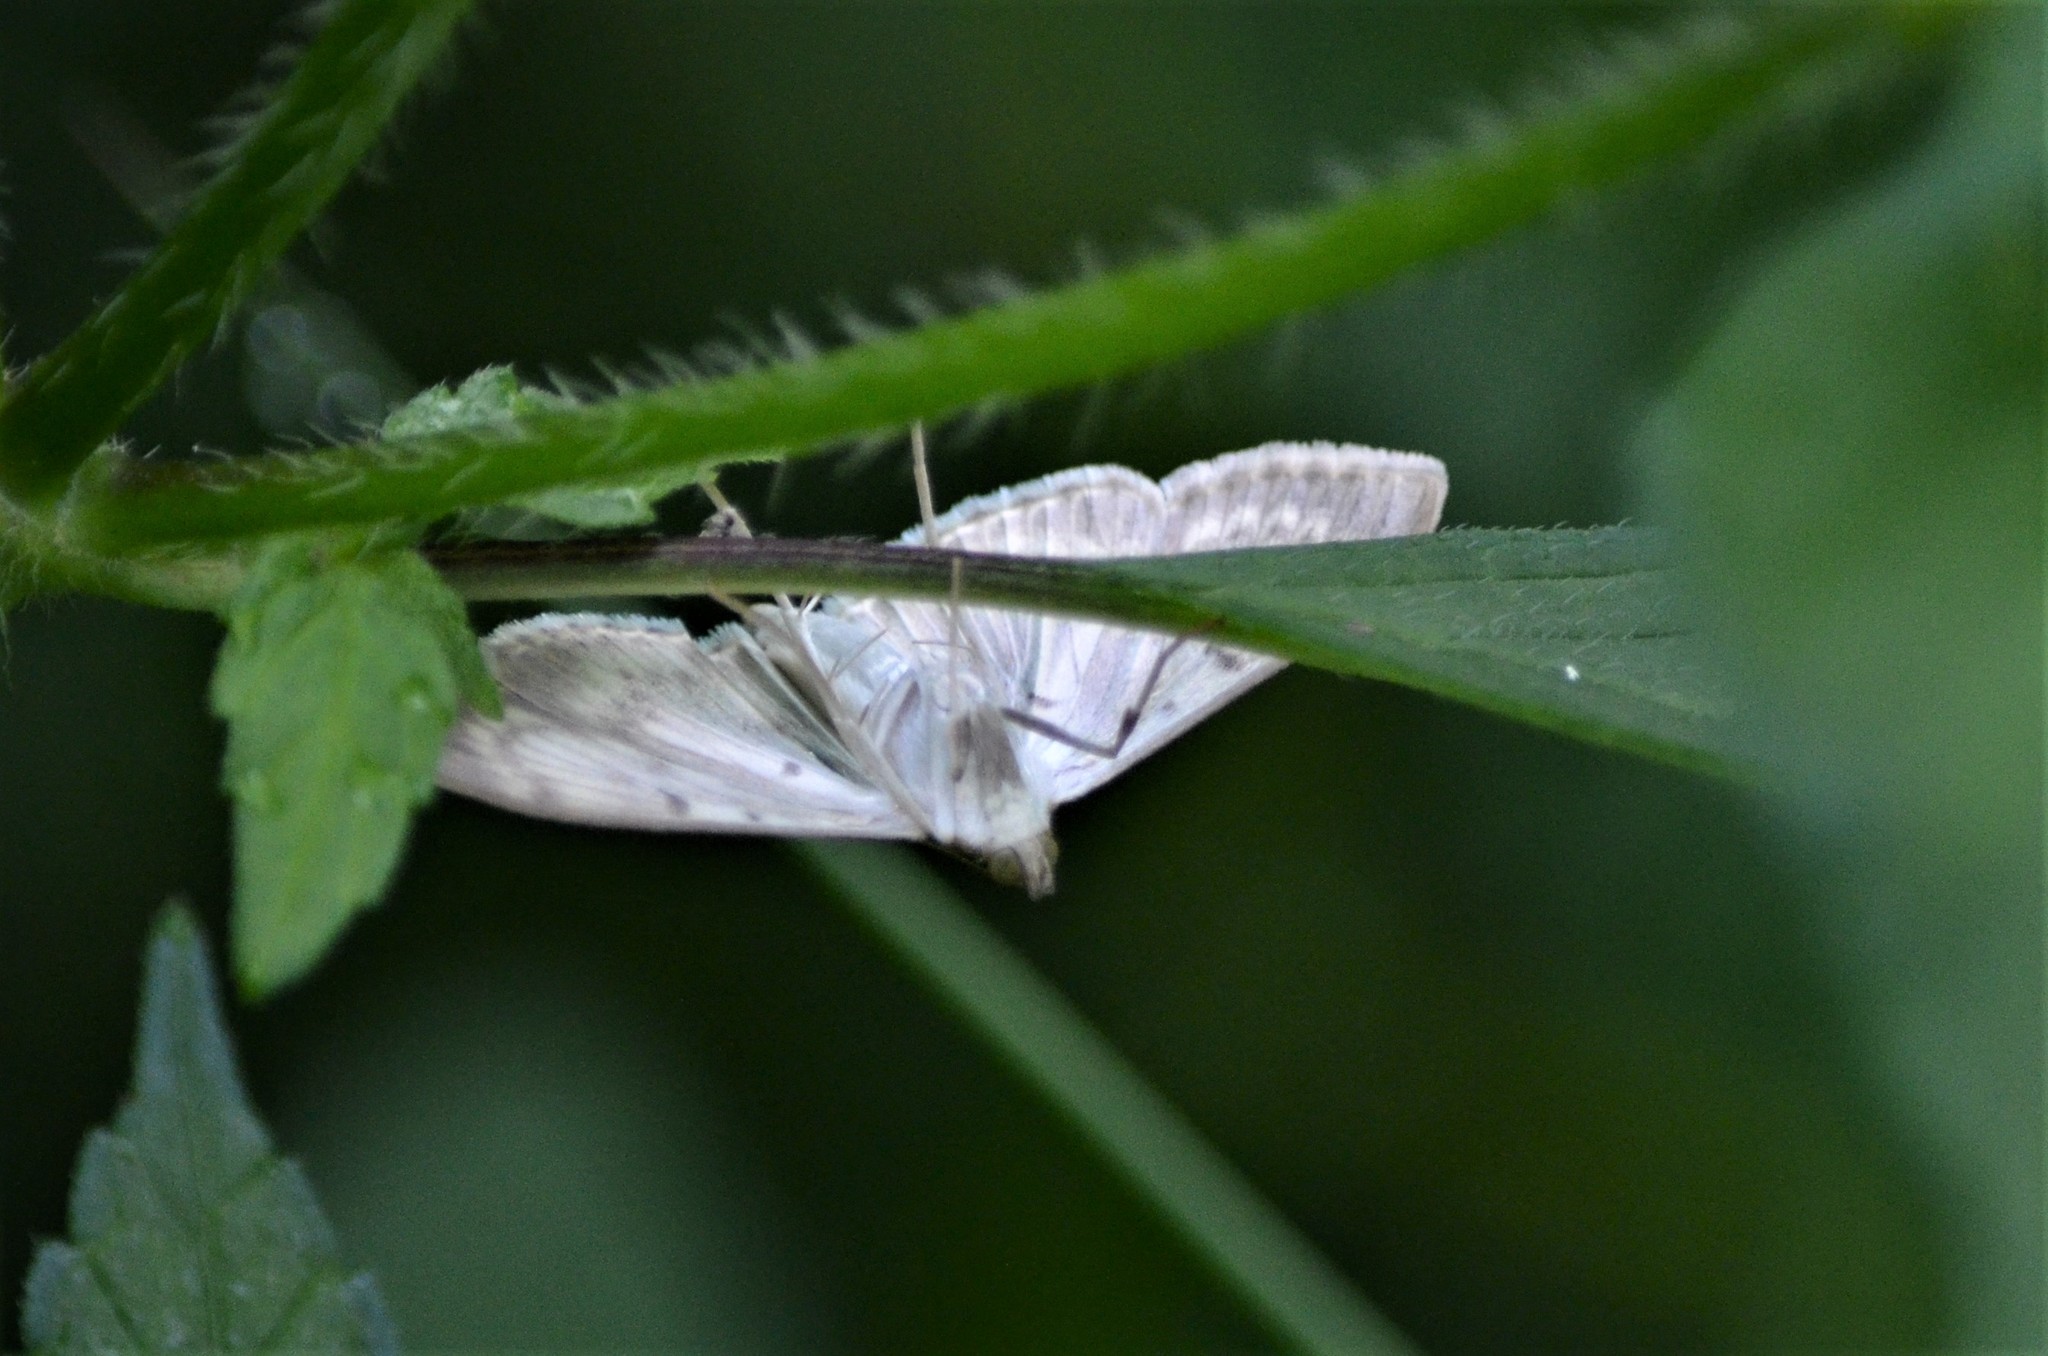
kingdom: Animalia
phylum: Arthropoda
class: Insecta
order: Lepidoptera
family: Crambidae
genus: Patania
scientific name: Patania ruralis
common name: Mother of pearl
